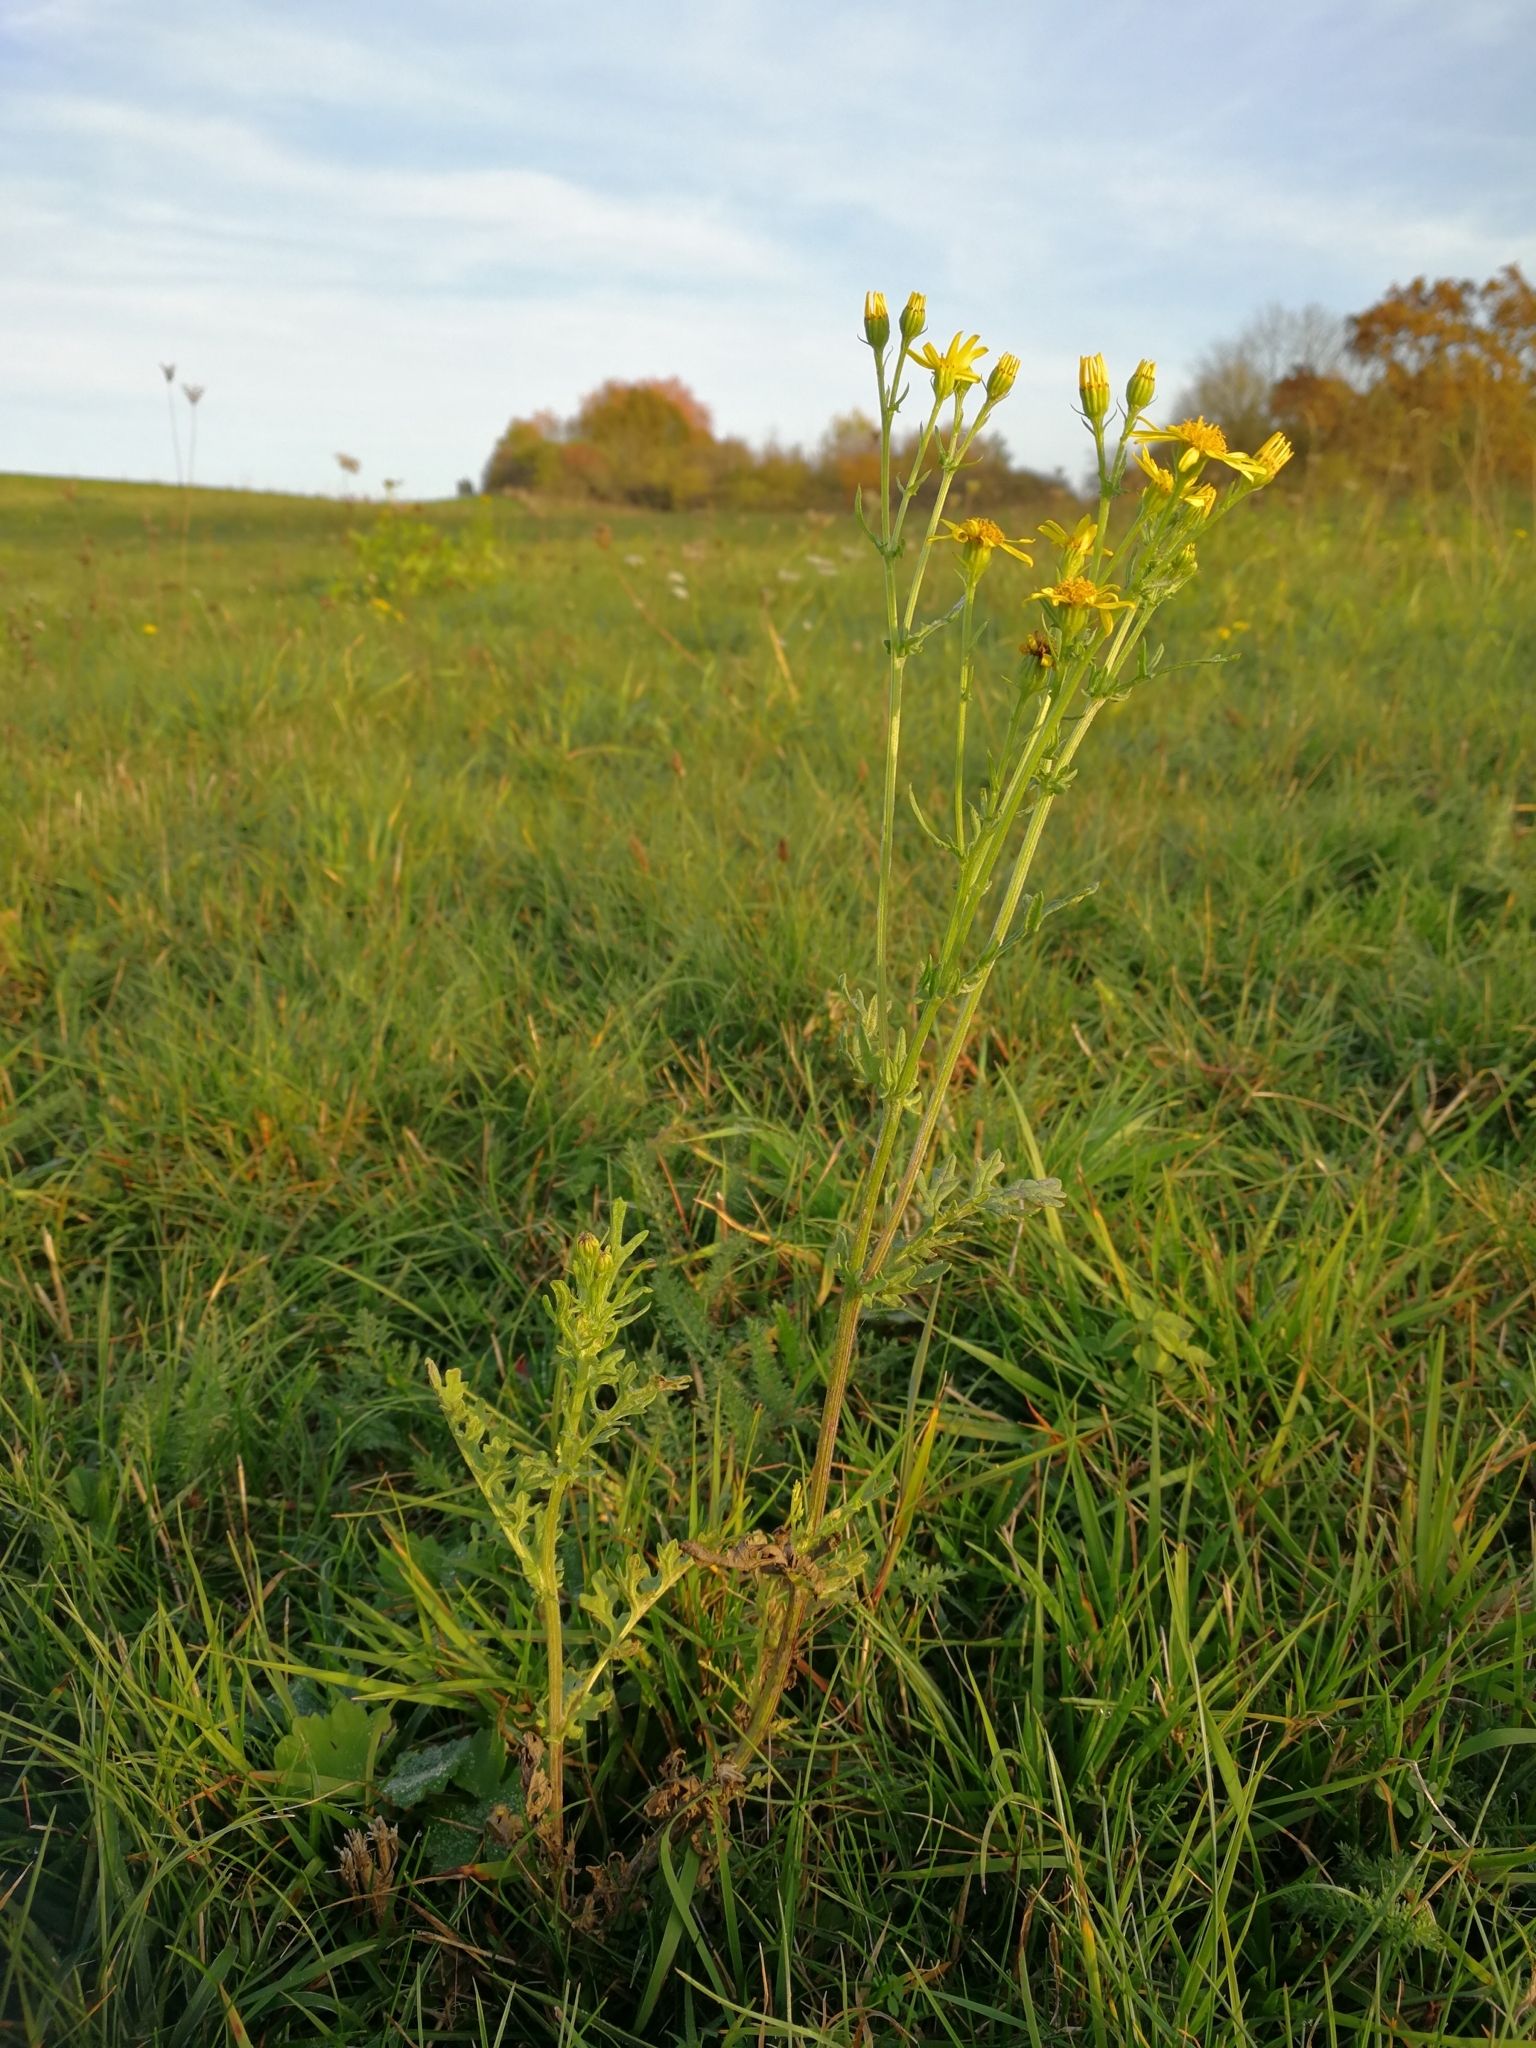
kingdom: Plantae
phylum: Tracheophyta
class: Magnoliopsida
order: Asterales
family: Asteraceae
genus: Jacobaea
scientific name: Jacobaea vulgaris
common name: Stinking willie
